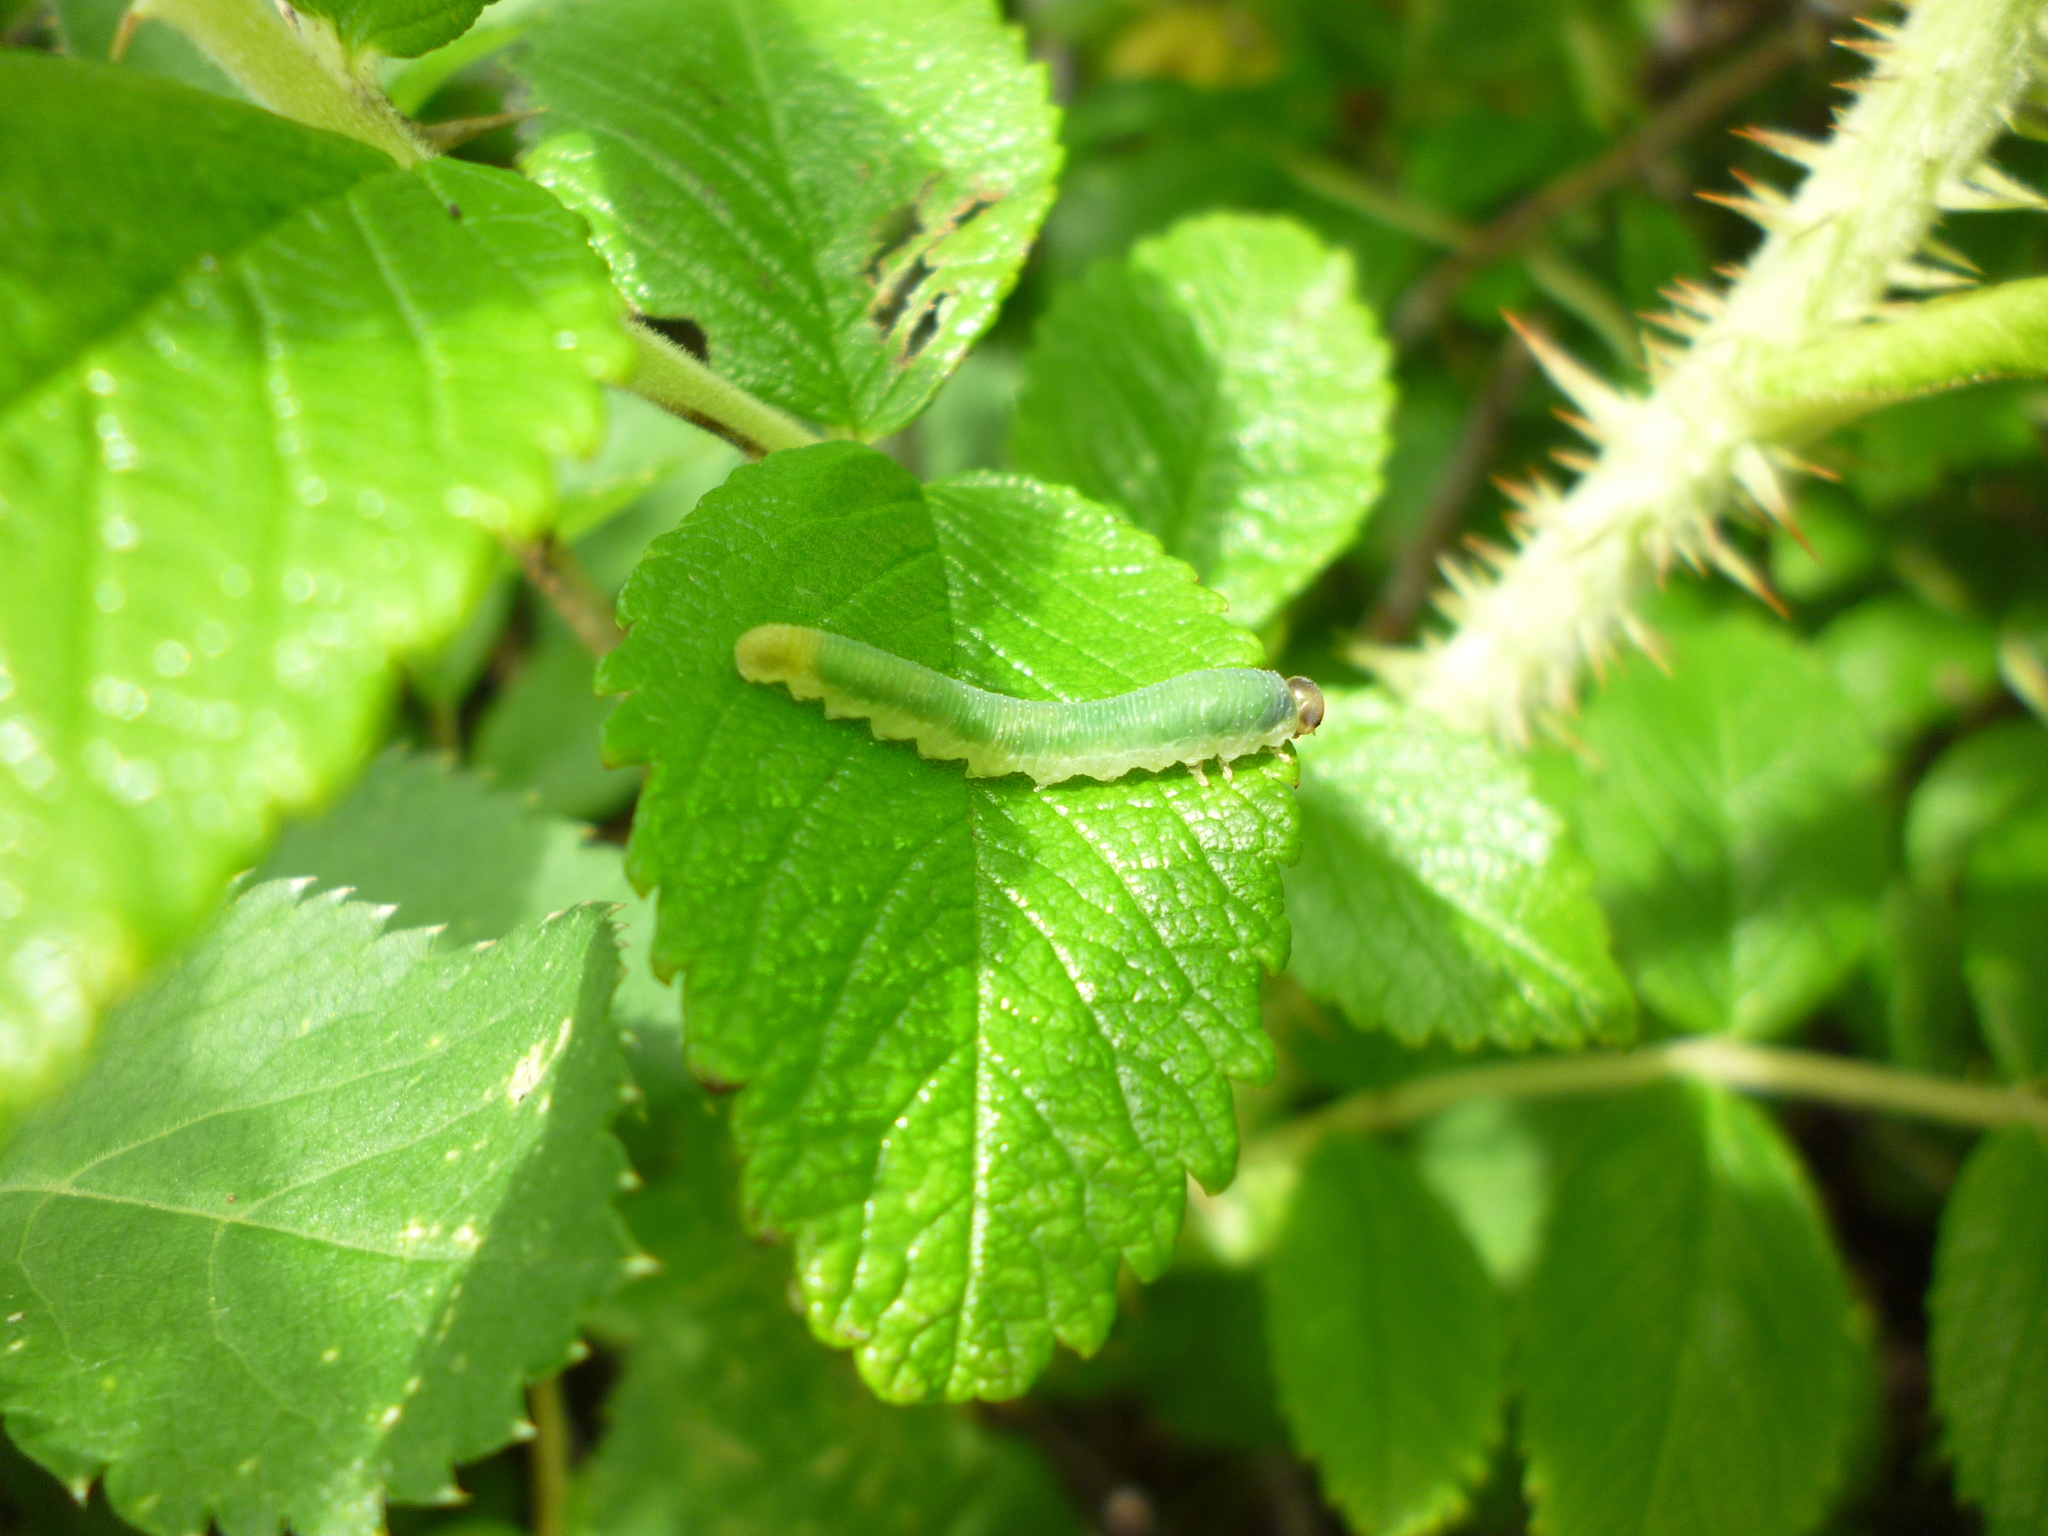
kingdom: Plantae
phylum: Tracheophyta
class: Magnoliopsida
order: Rosales
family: Rosaceae
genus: Rosa
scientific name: Rosa rugosa
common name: Japanese rose
